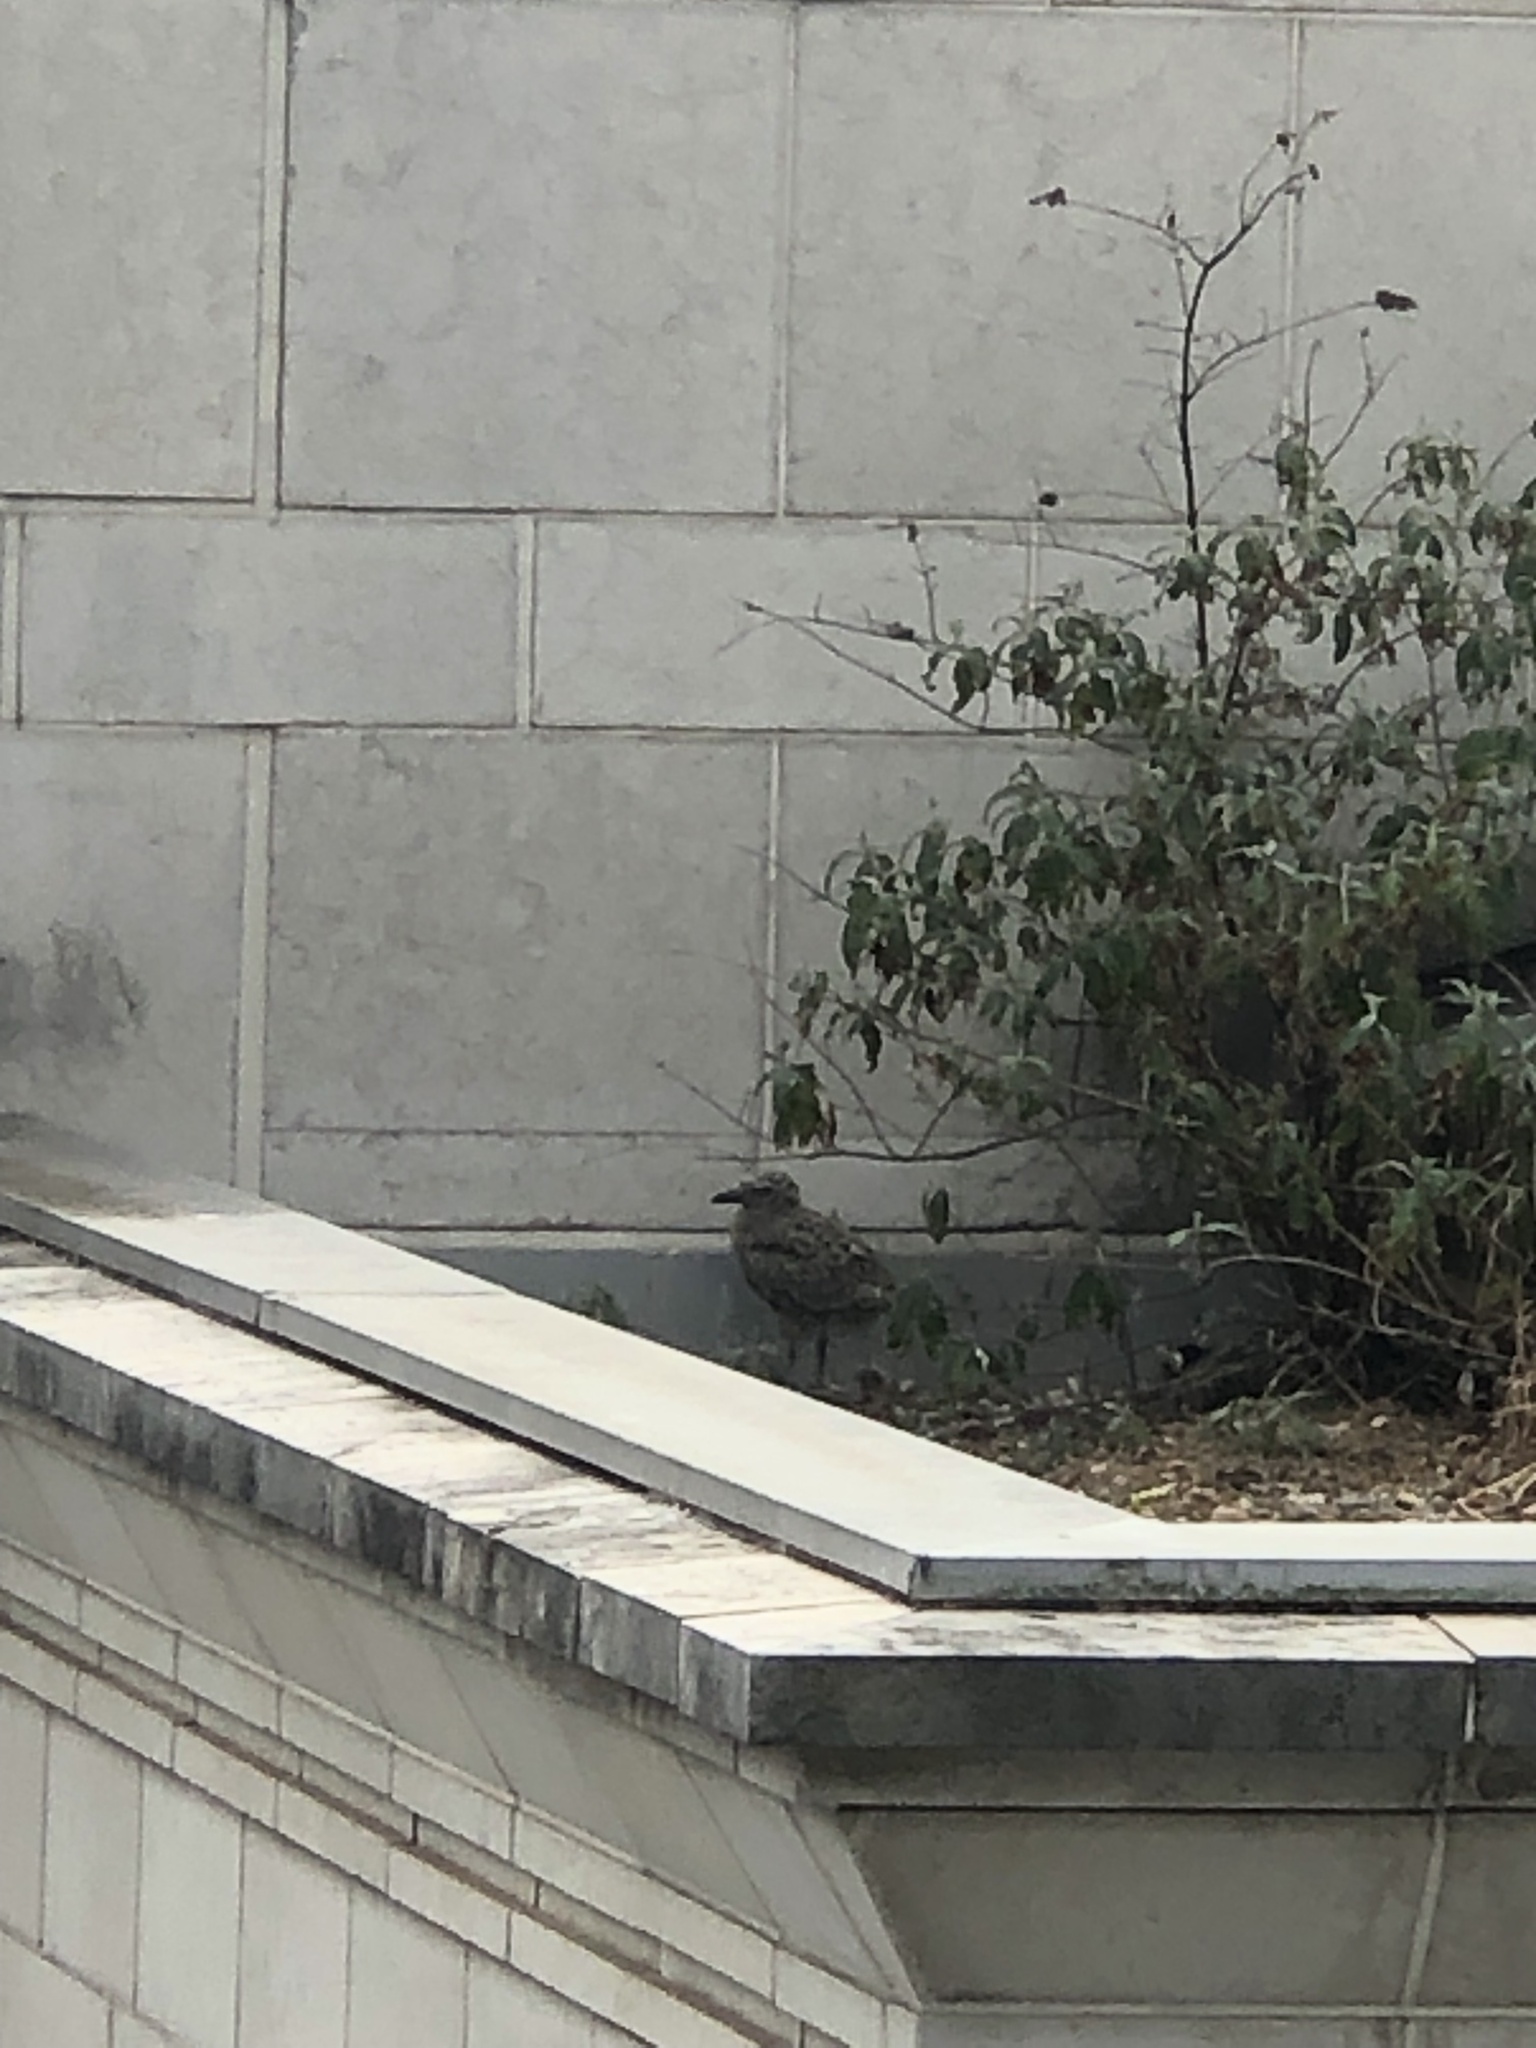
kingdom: Animalia
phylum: Chordata
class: Aves
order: Charadriiformes
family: Laridae
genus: Larus
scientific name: Larus argentatus
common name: Herring gull
